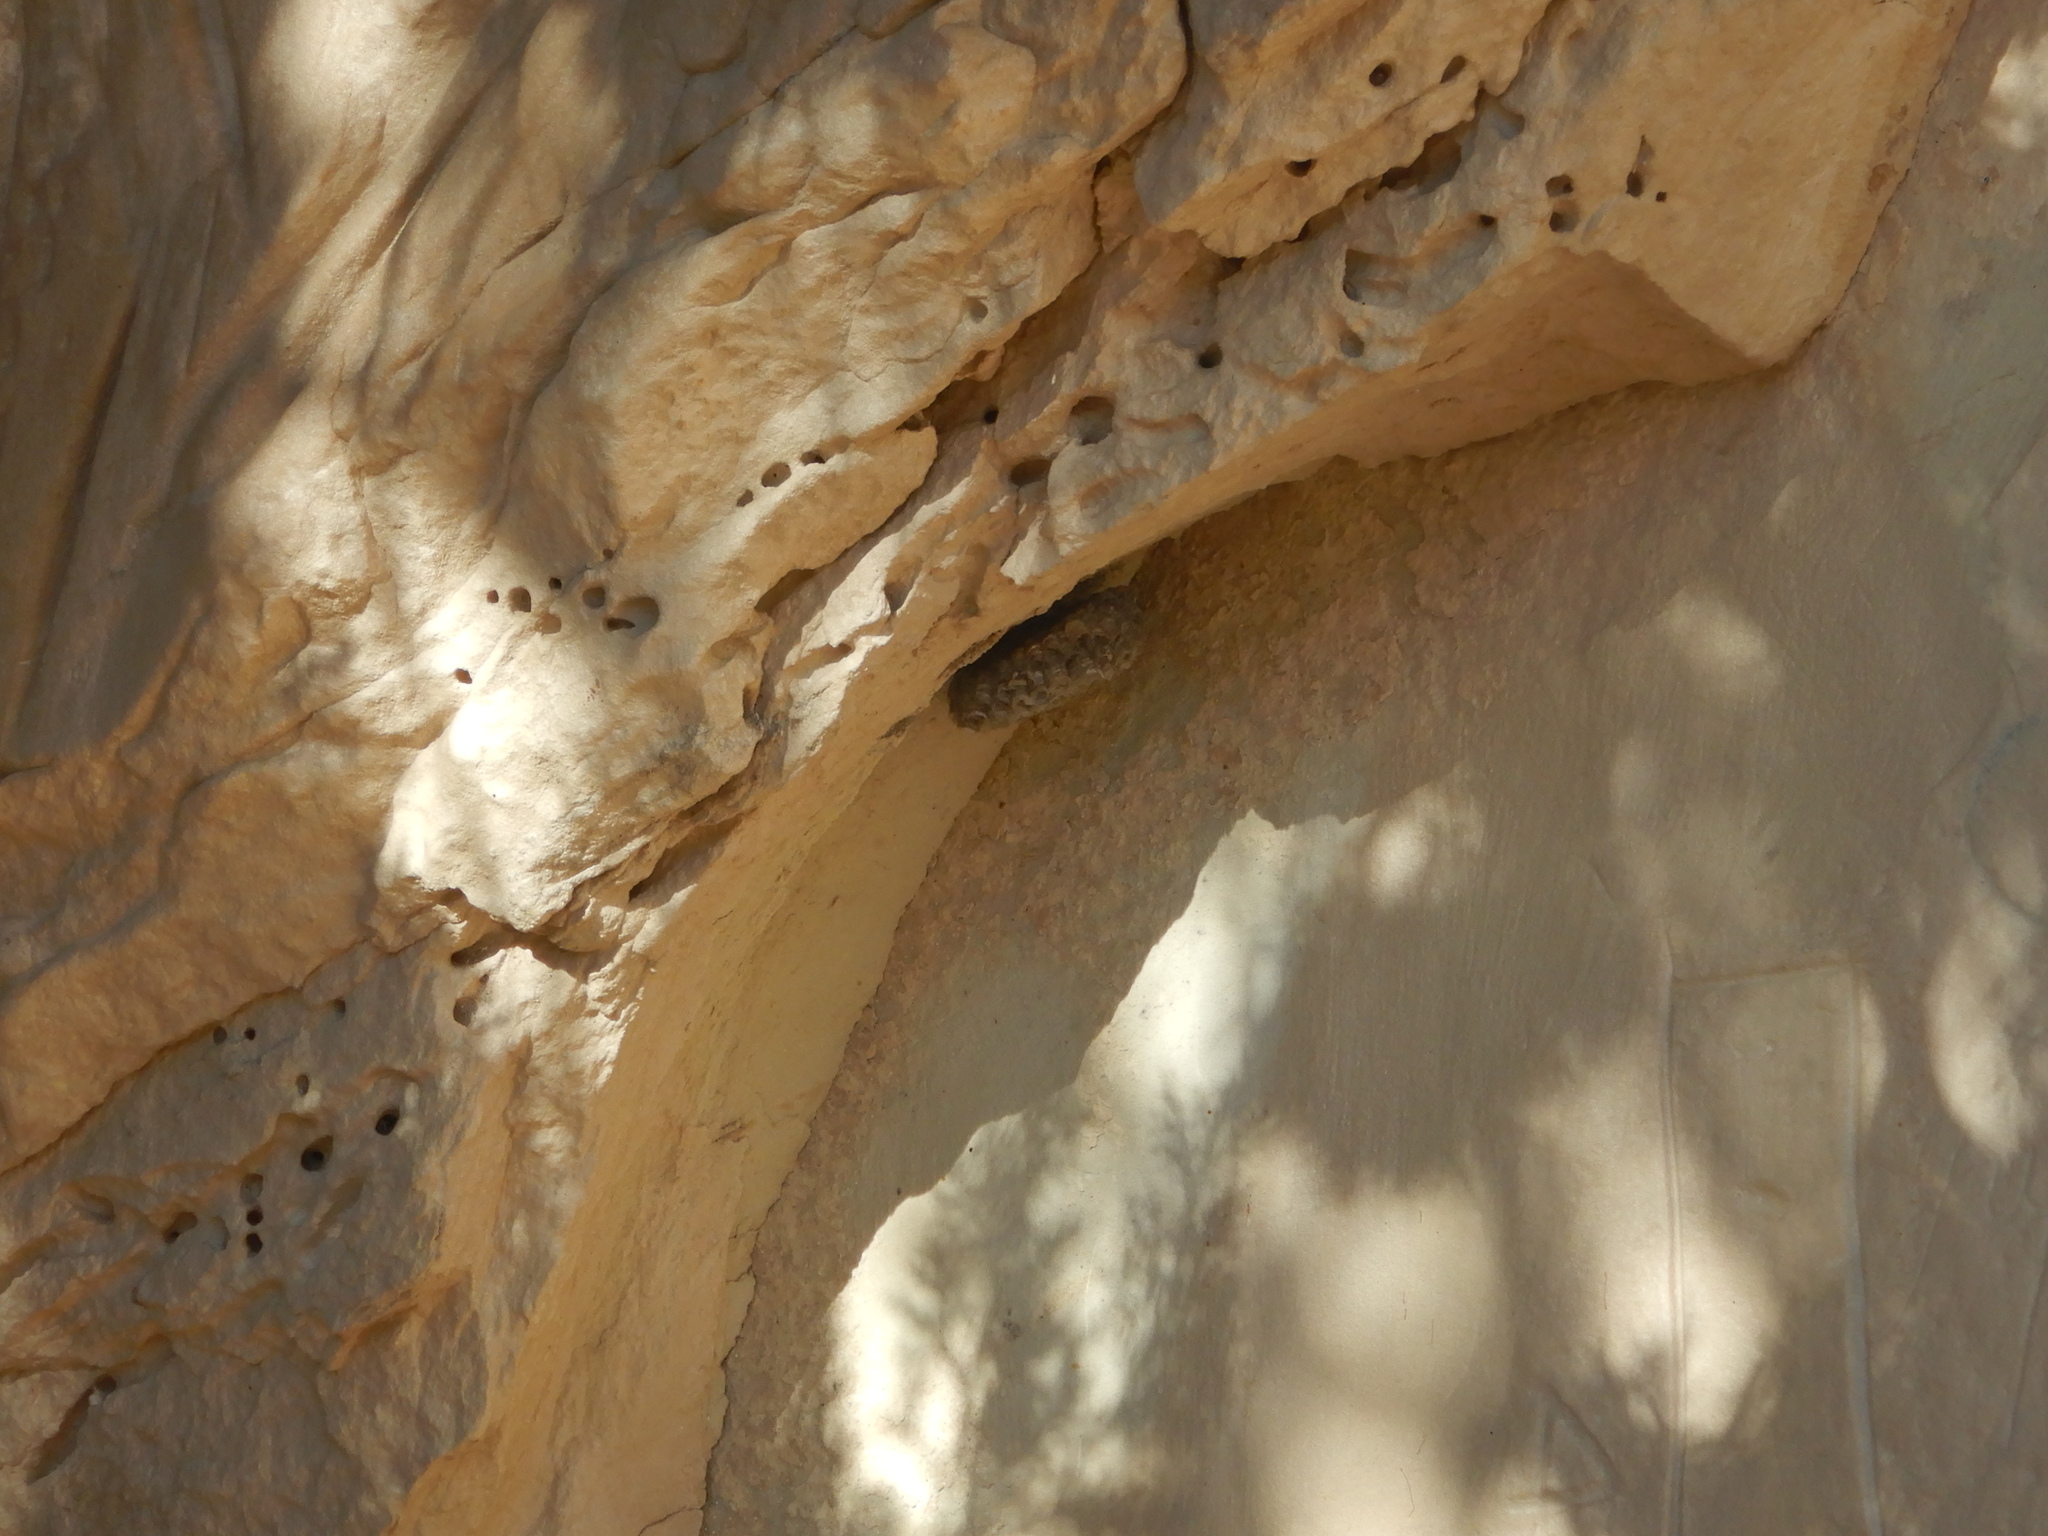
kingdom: Animalia
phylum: Arthropoda
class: Insecta
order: Hymenoptera
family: Vespidae
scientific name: Vespidae
